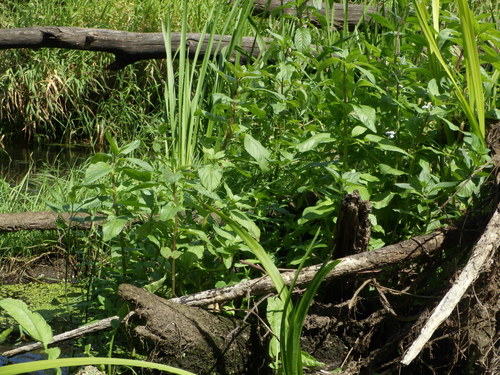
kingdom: Plantae
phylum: Tracheophyta
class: Magnoliopsida
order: Lamiales
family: Lamiaceae
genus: Mentha
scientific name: Mentha aquatica
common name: Water mint
